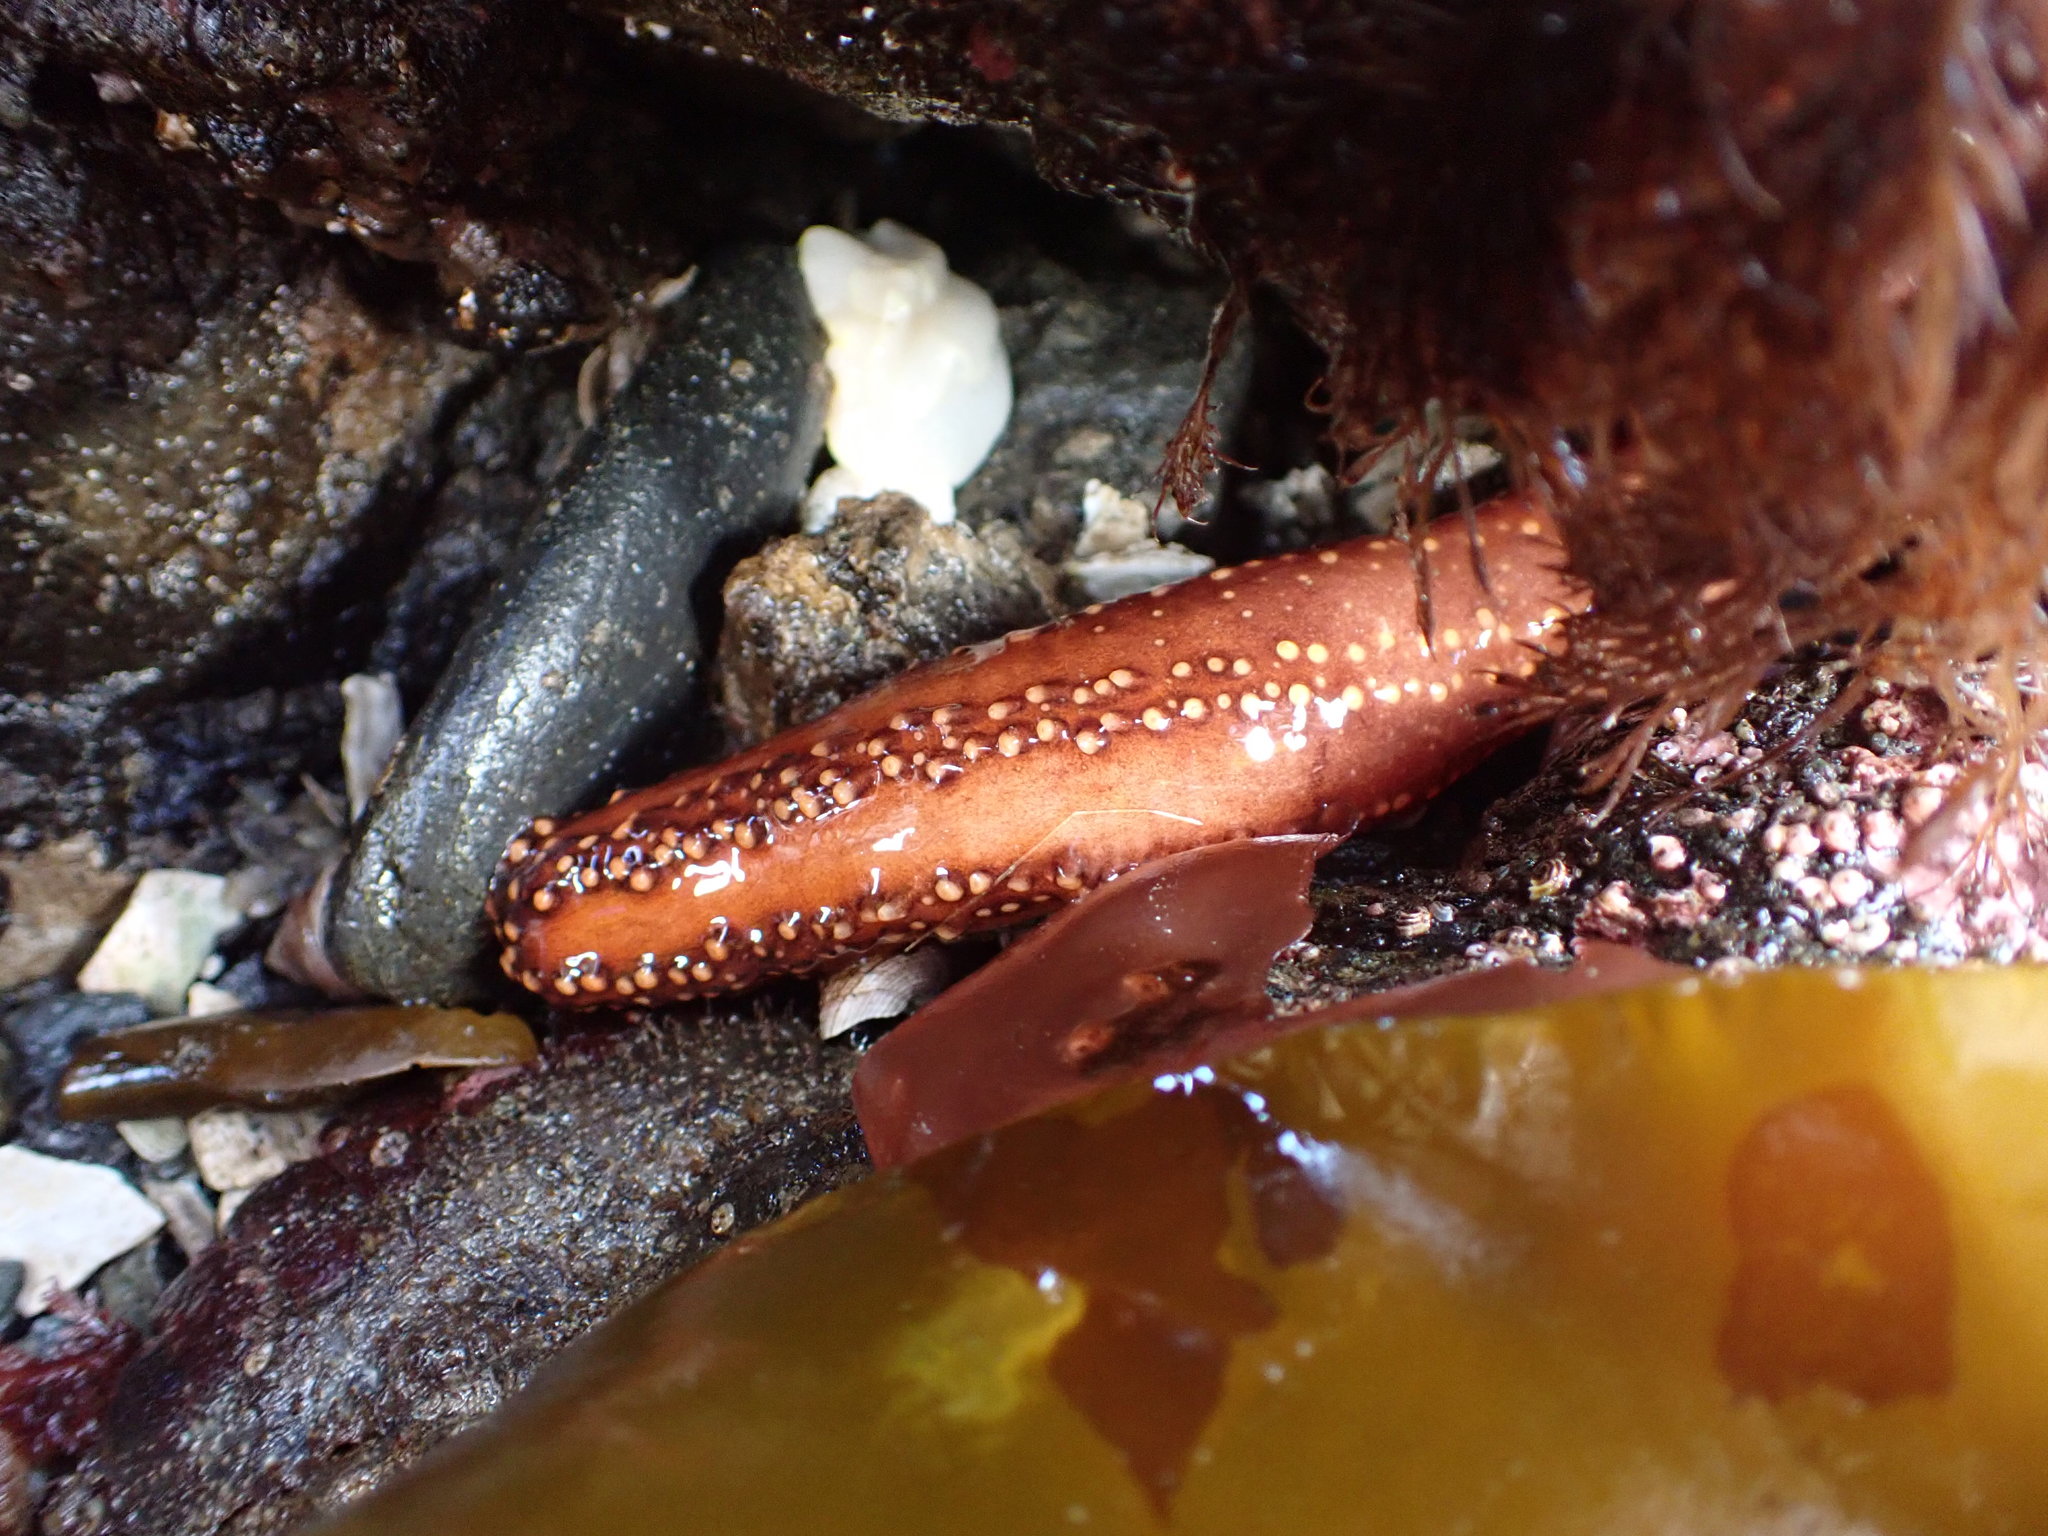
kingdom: Animalia
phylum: Echinodermata
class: Holothuroidea
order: Dendrochirotida
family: Cucumariidae
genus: Cucumaria
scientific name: Cucumaria miniata
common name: Orange sea cucumber
